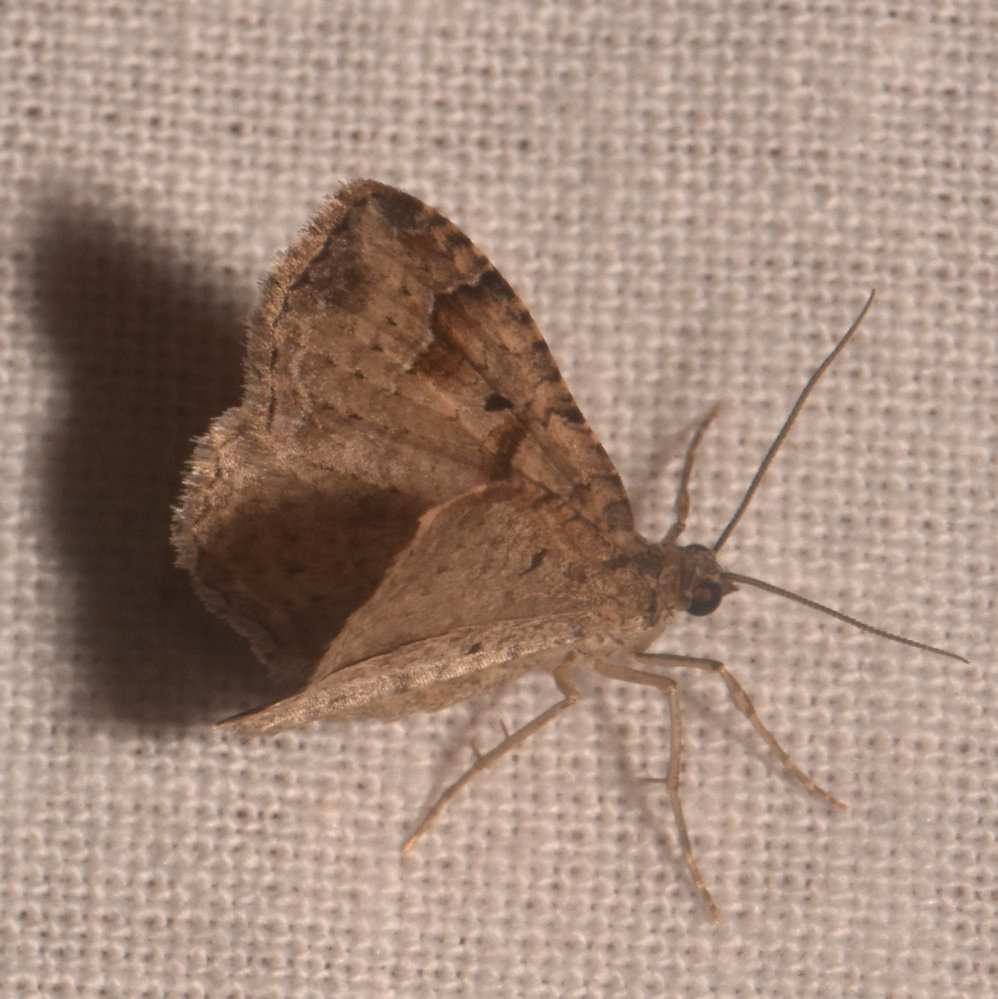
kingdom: Animalia
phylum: Arthropoda
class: Insecta
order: Lepidoptera
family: Geometridae
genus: Costaconvexa
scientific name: Costaconvexa centrostrigaria
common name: Bent-line carpet
